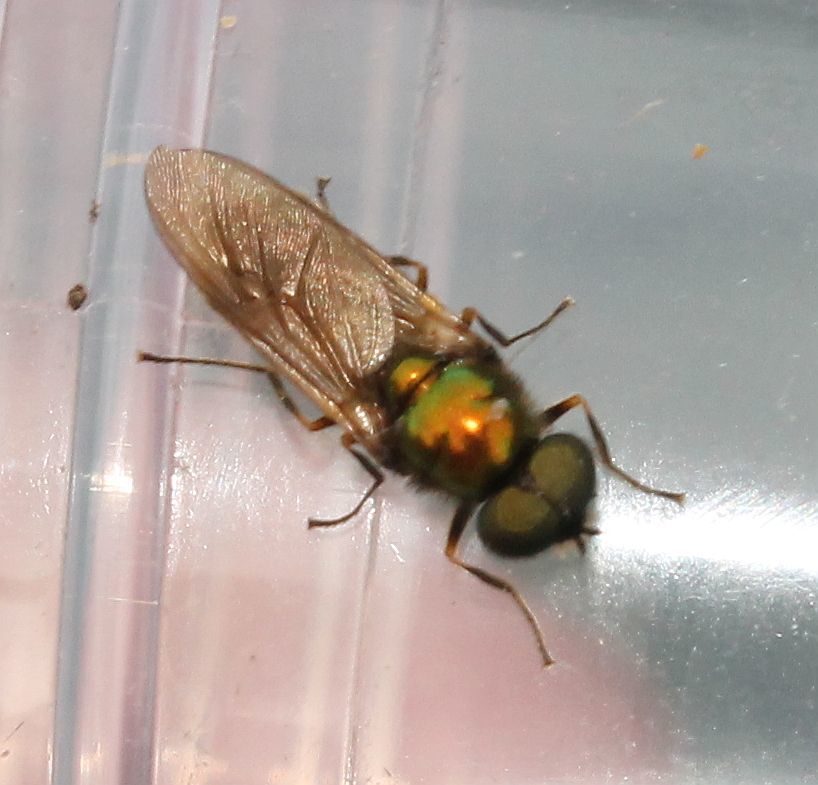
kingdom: Animalia
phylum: Arthropoda
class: Insecta
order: Diptera
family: Stratiomyidae
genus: Chloromyia
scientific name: Chloromyia formosa
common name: Soldier fly
